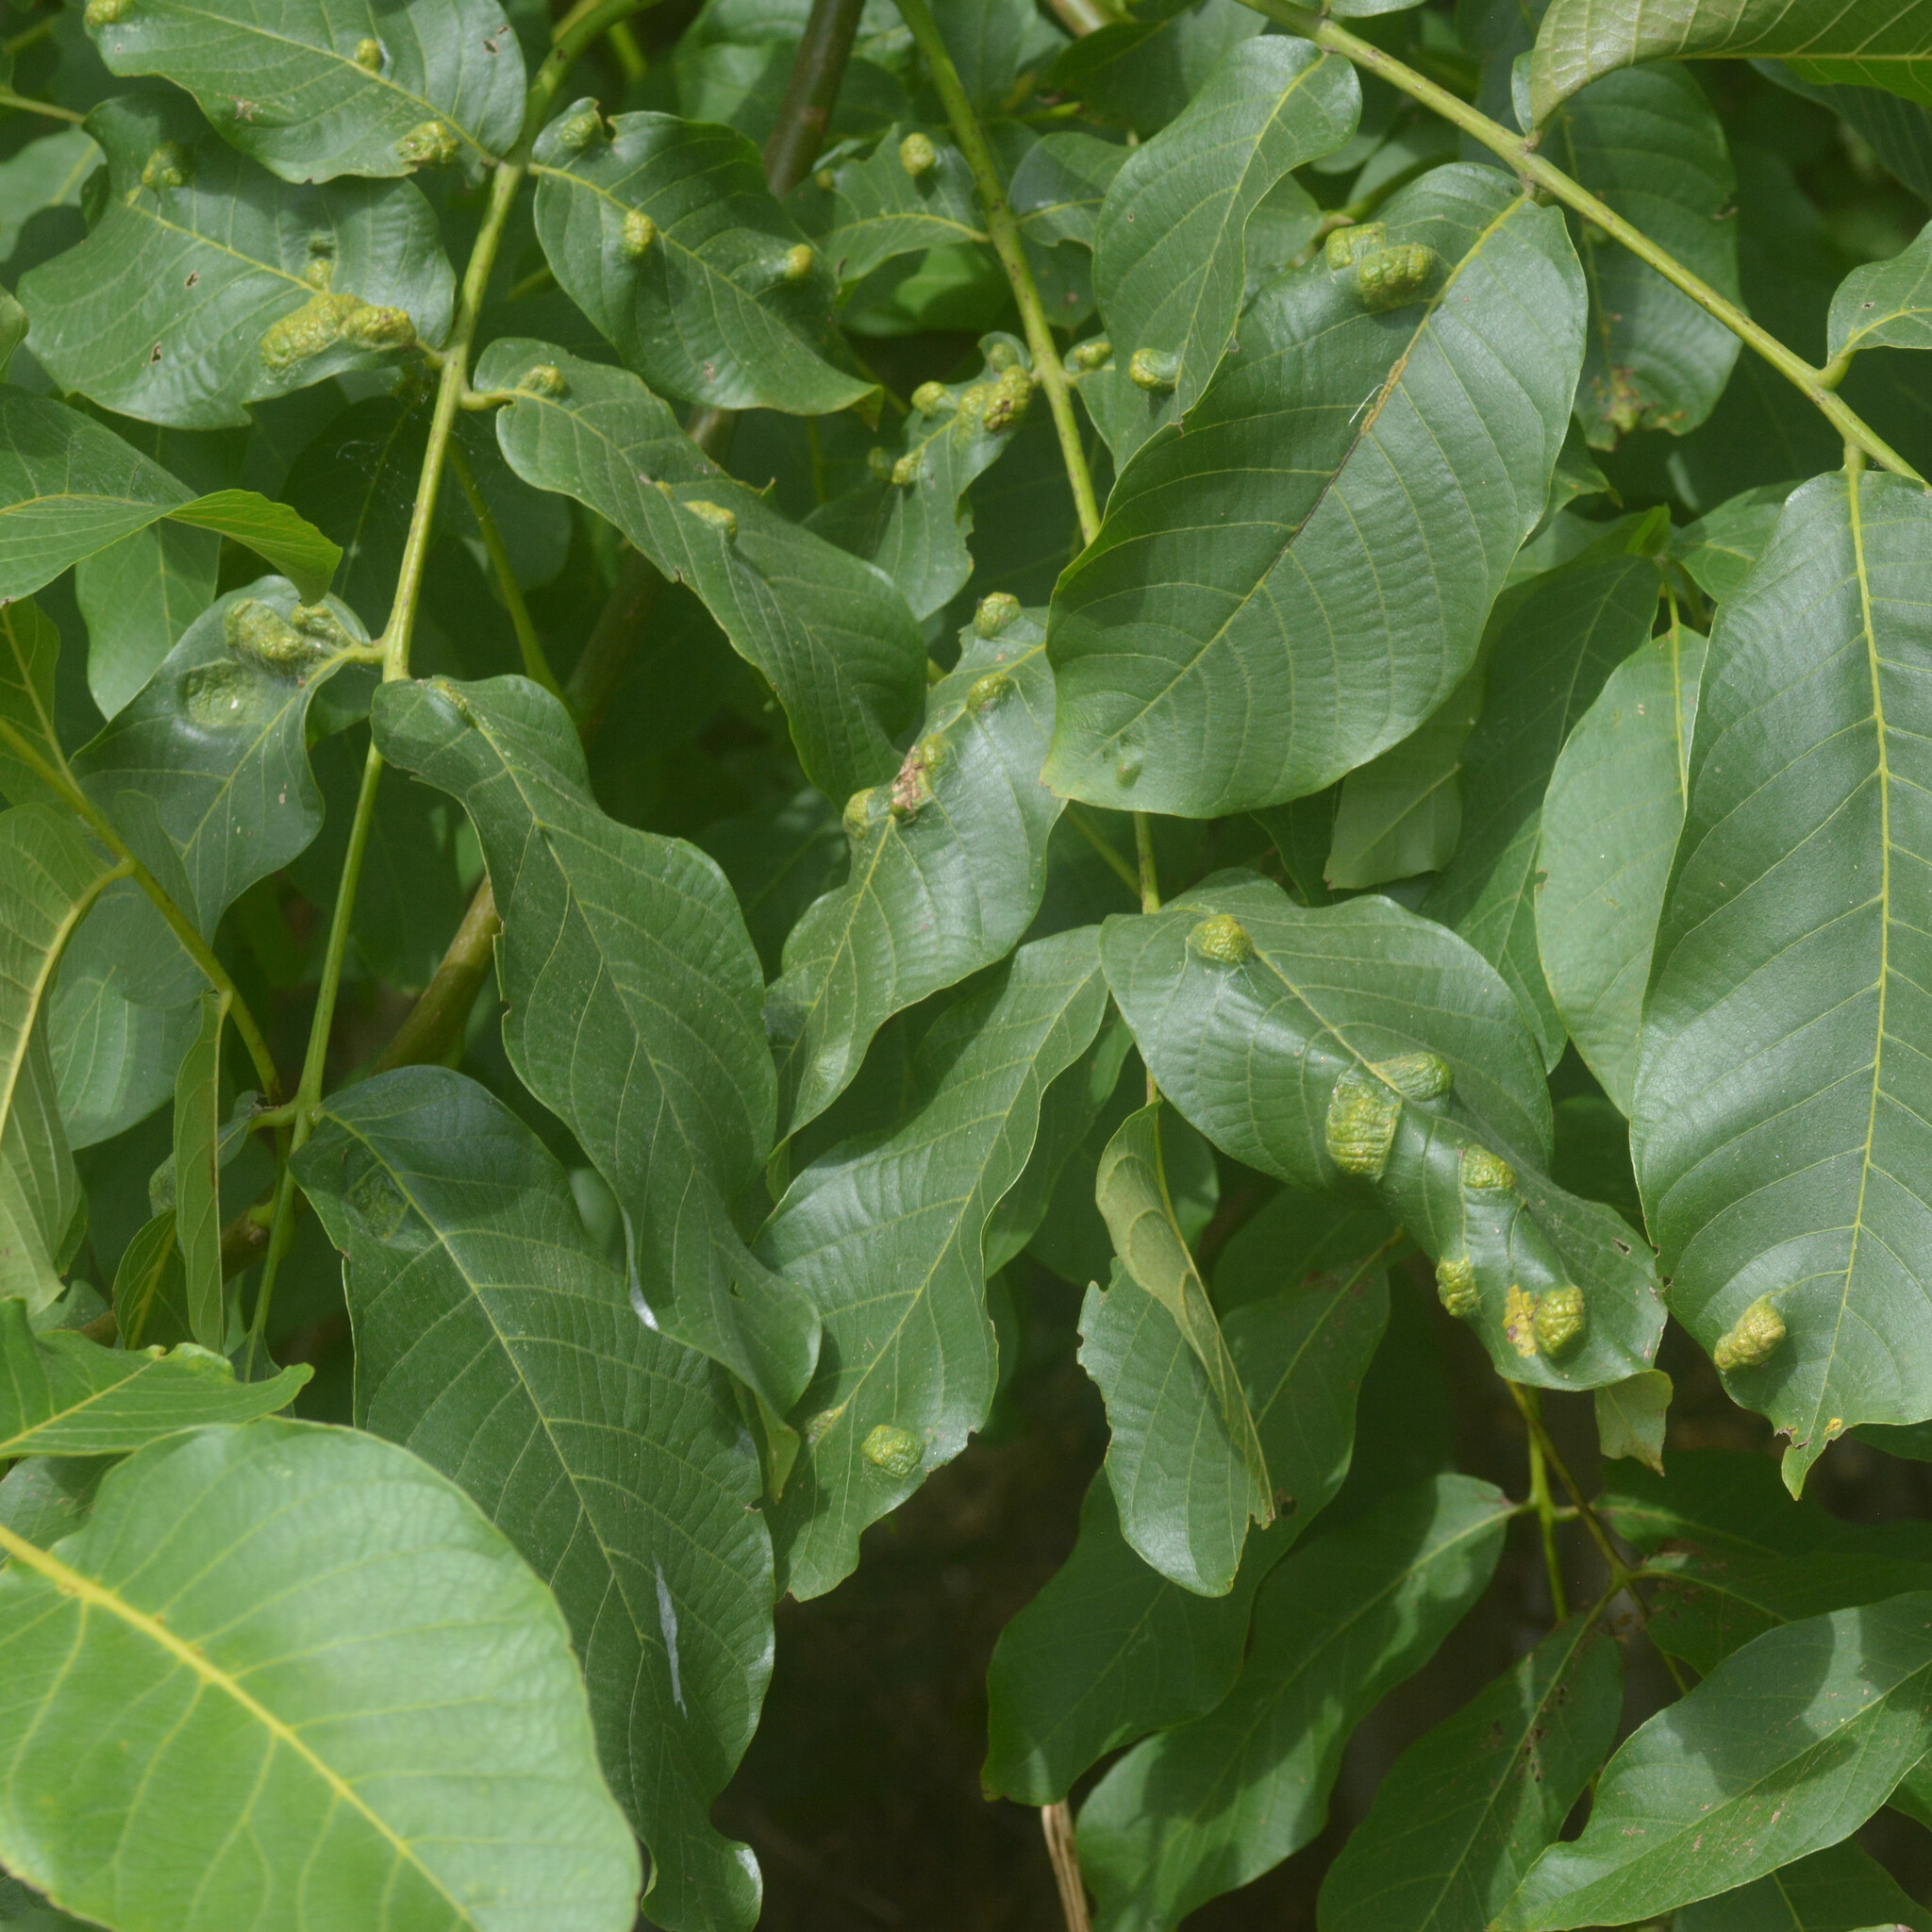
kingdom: Plantae
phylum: Tracheophyta
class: Magnoliopsida
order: Fagales
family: Juglandaceae
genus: Juglans
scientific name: Juglans regia
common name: Walnut
